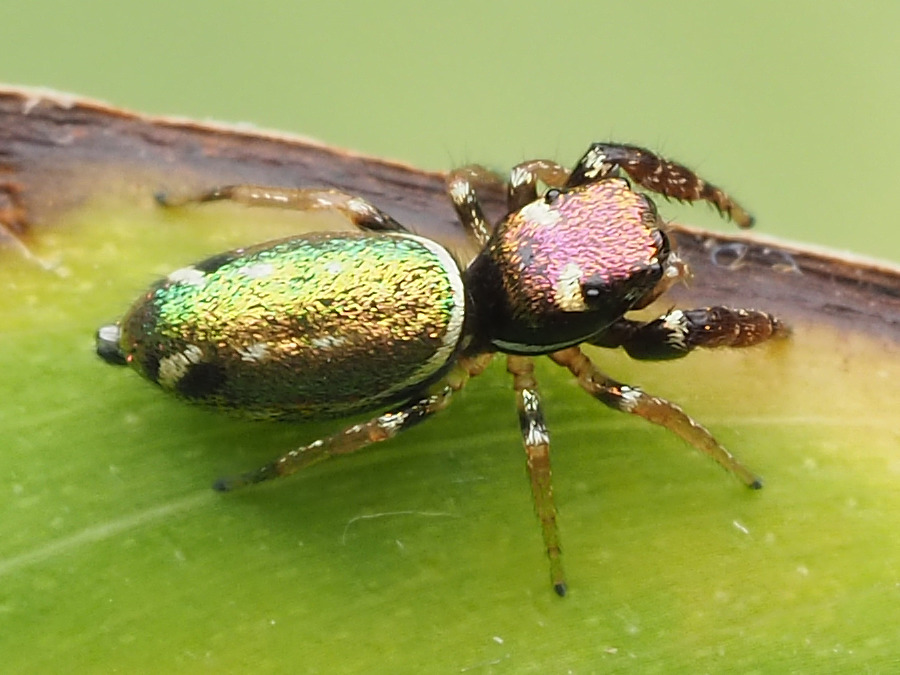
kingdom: Animalia
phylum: Arthropoda
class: Arachnida
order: Araneae
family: Salticidae
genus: Sassacus
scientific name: Sassacus vitis
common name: Jumping spiders
